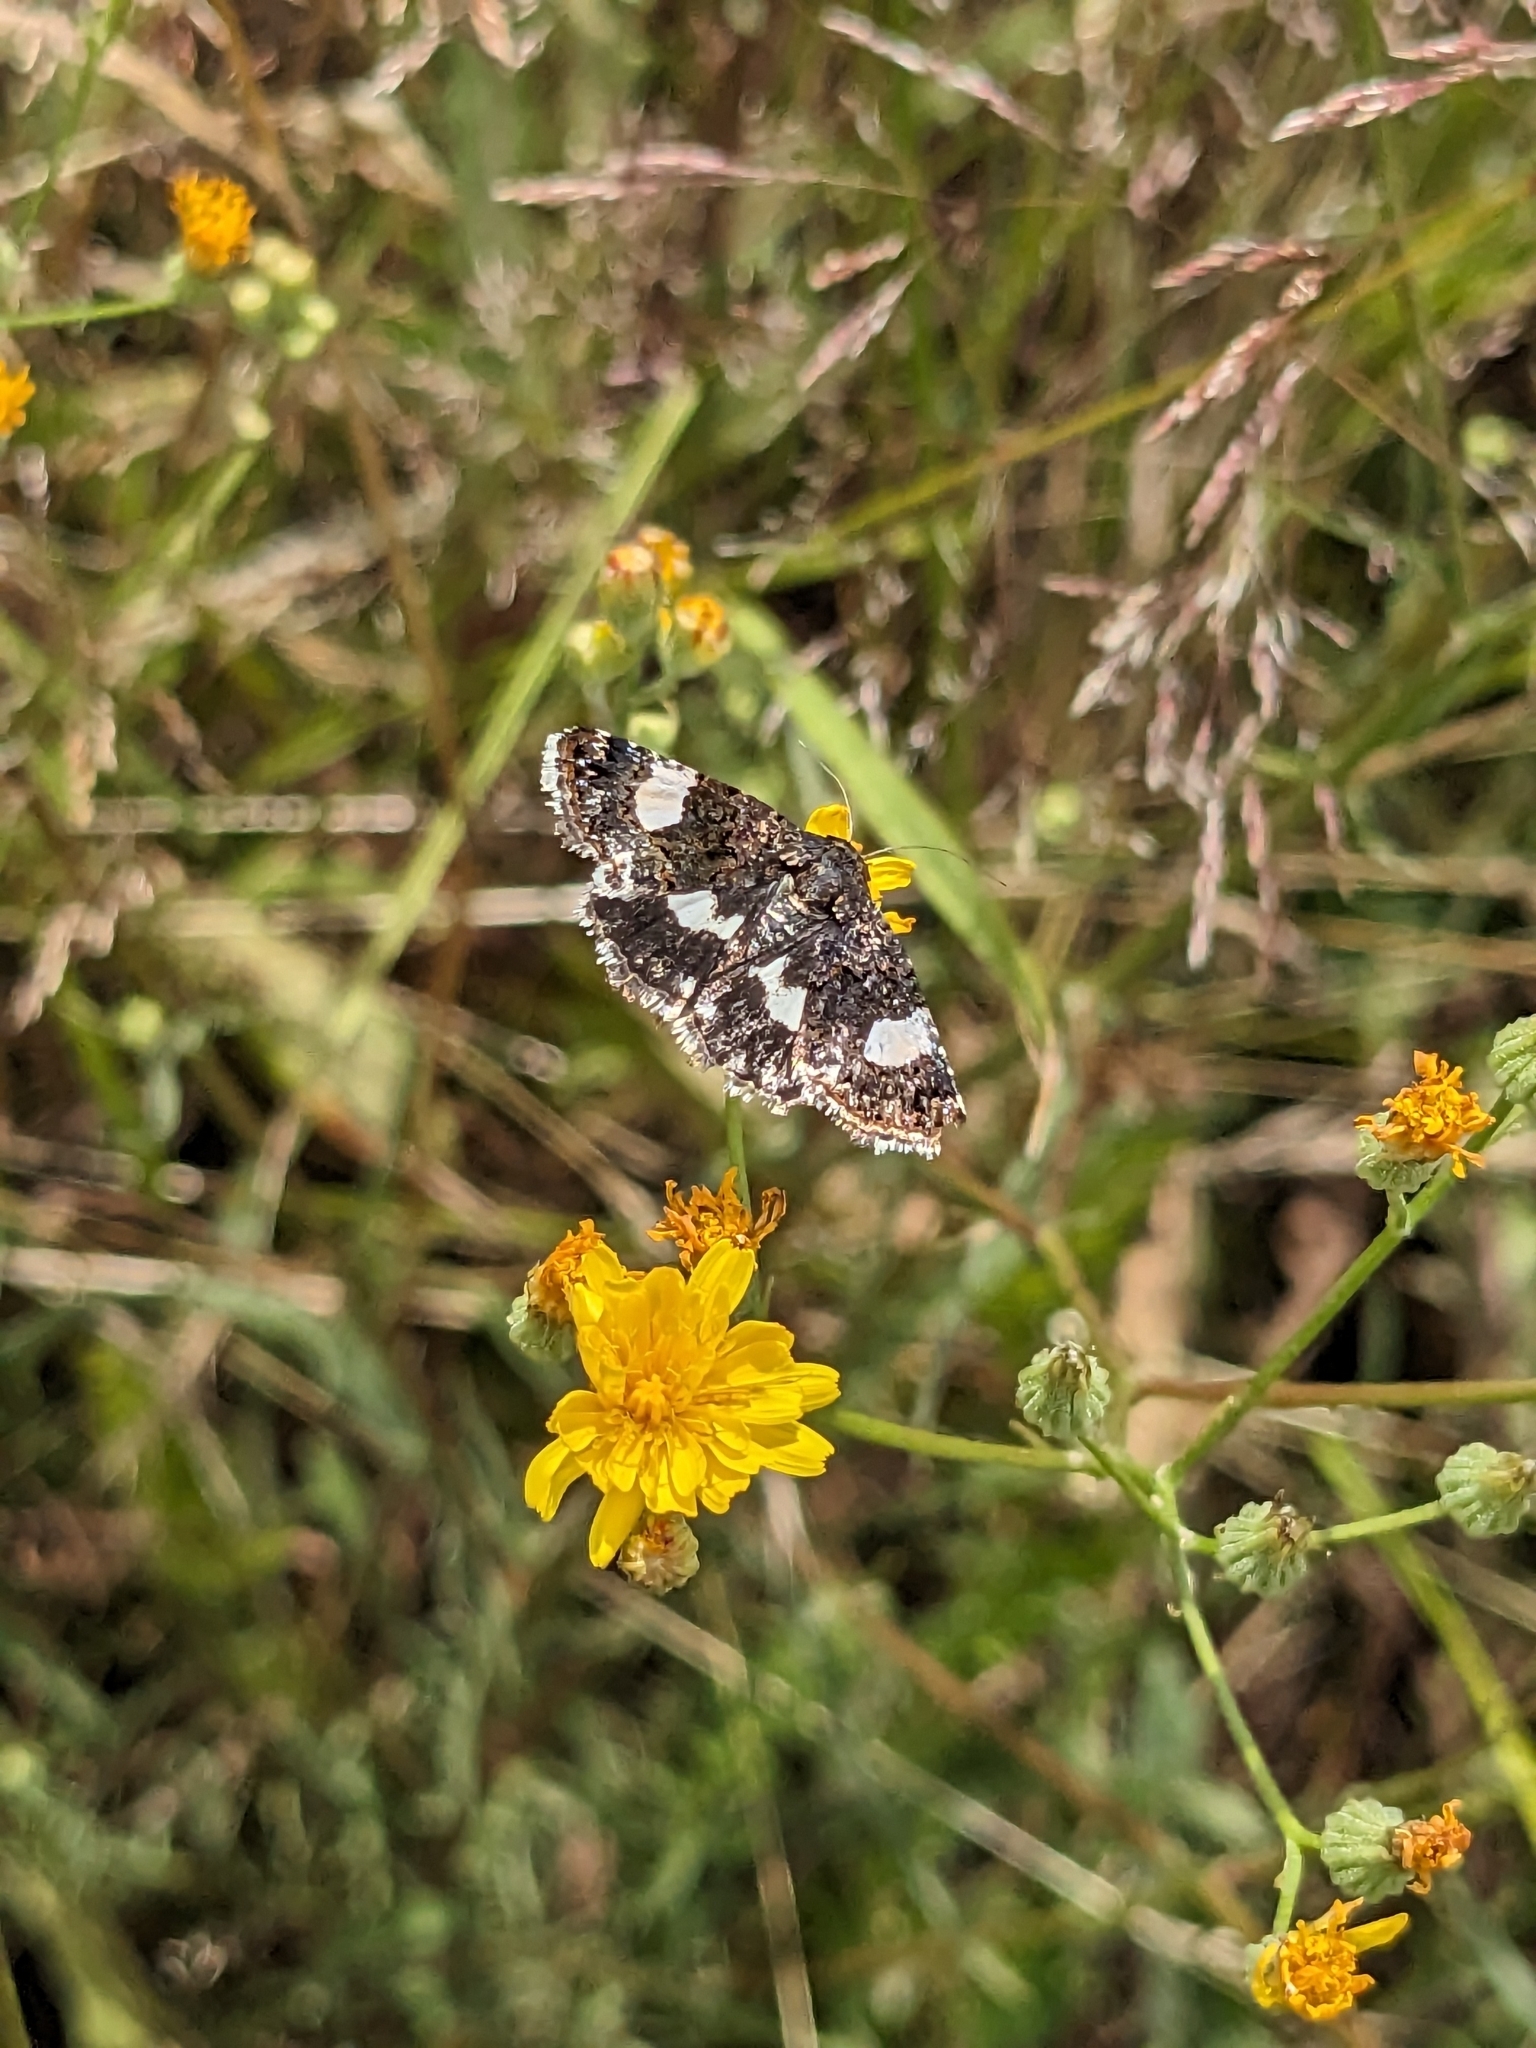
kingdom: Animalia
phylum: Arthropoda
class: Insecta
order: Lepidoptera
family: Erebidae
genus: Tyta
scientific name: Tyta luctuosa
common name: Four-spotted
